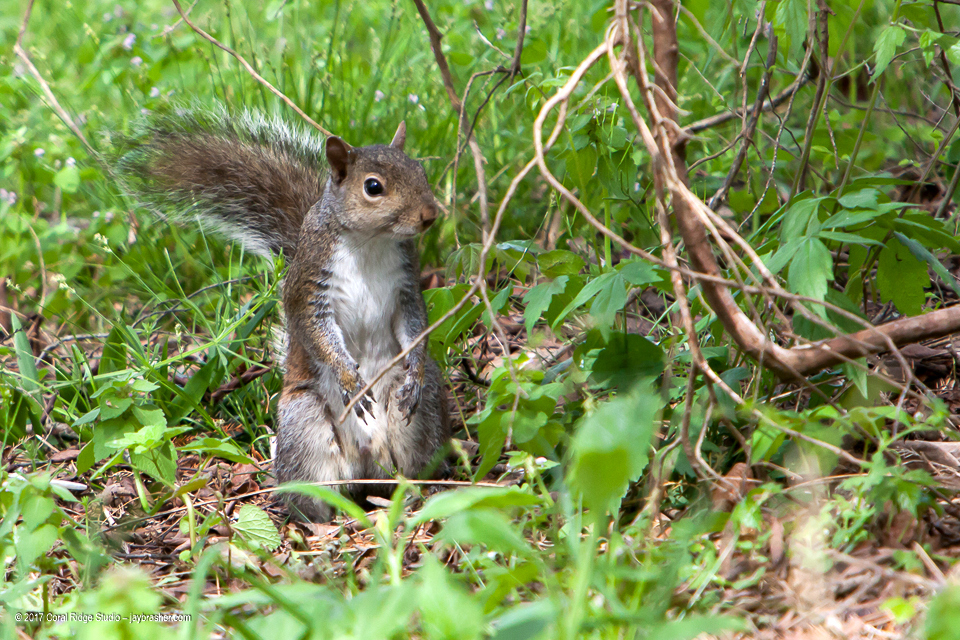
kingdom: Animalia
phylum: Chordata
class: Mammalia
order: Rodentia
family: Sciuridae
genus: Sciurus
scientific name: Sciurus carolinensis
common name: Eastern gray squirrel
